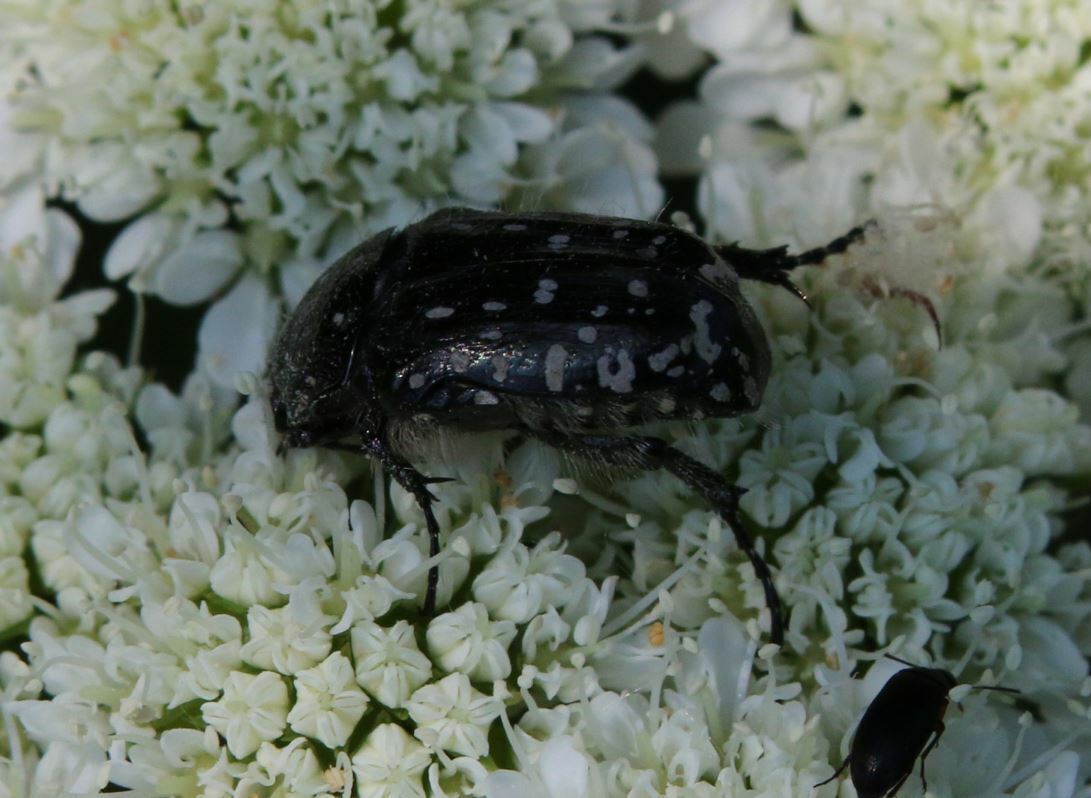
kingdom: Animalia
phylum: Arthropoda
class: Insecta
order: Coleoptera
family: Scarabaeidae
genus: Oxythyrea
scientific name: Oxythyrea funesta
